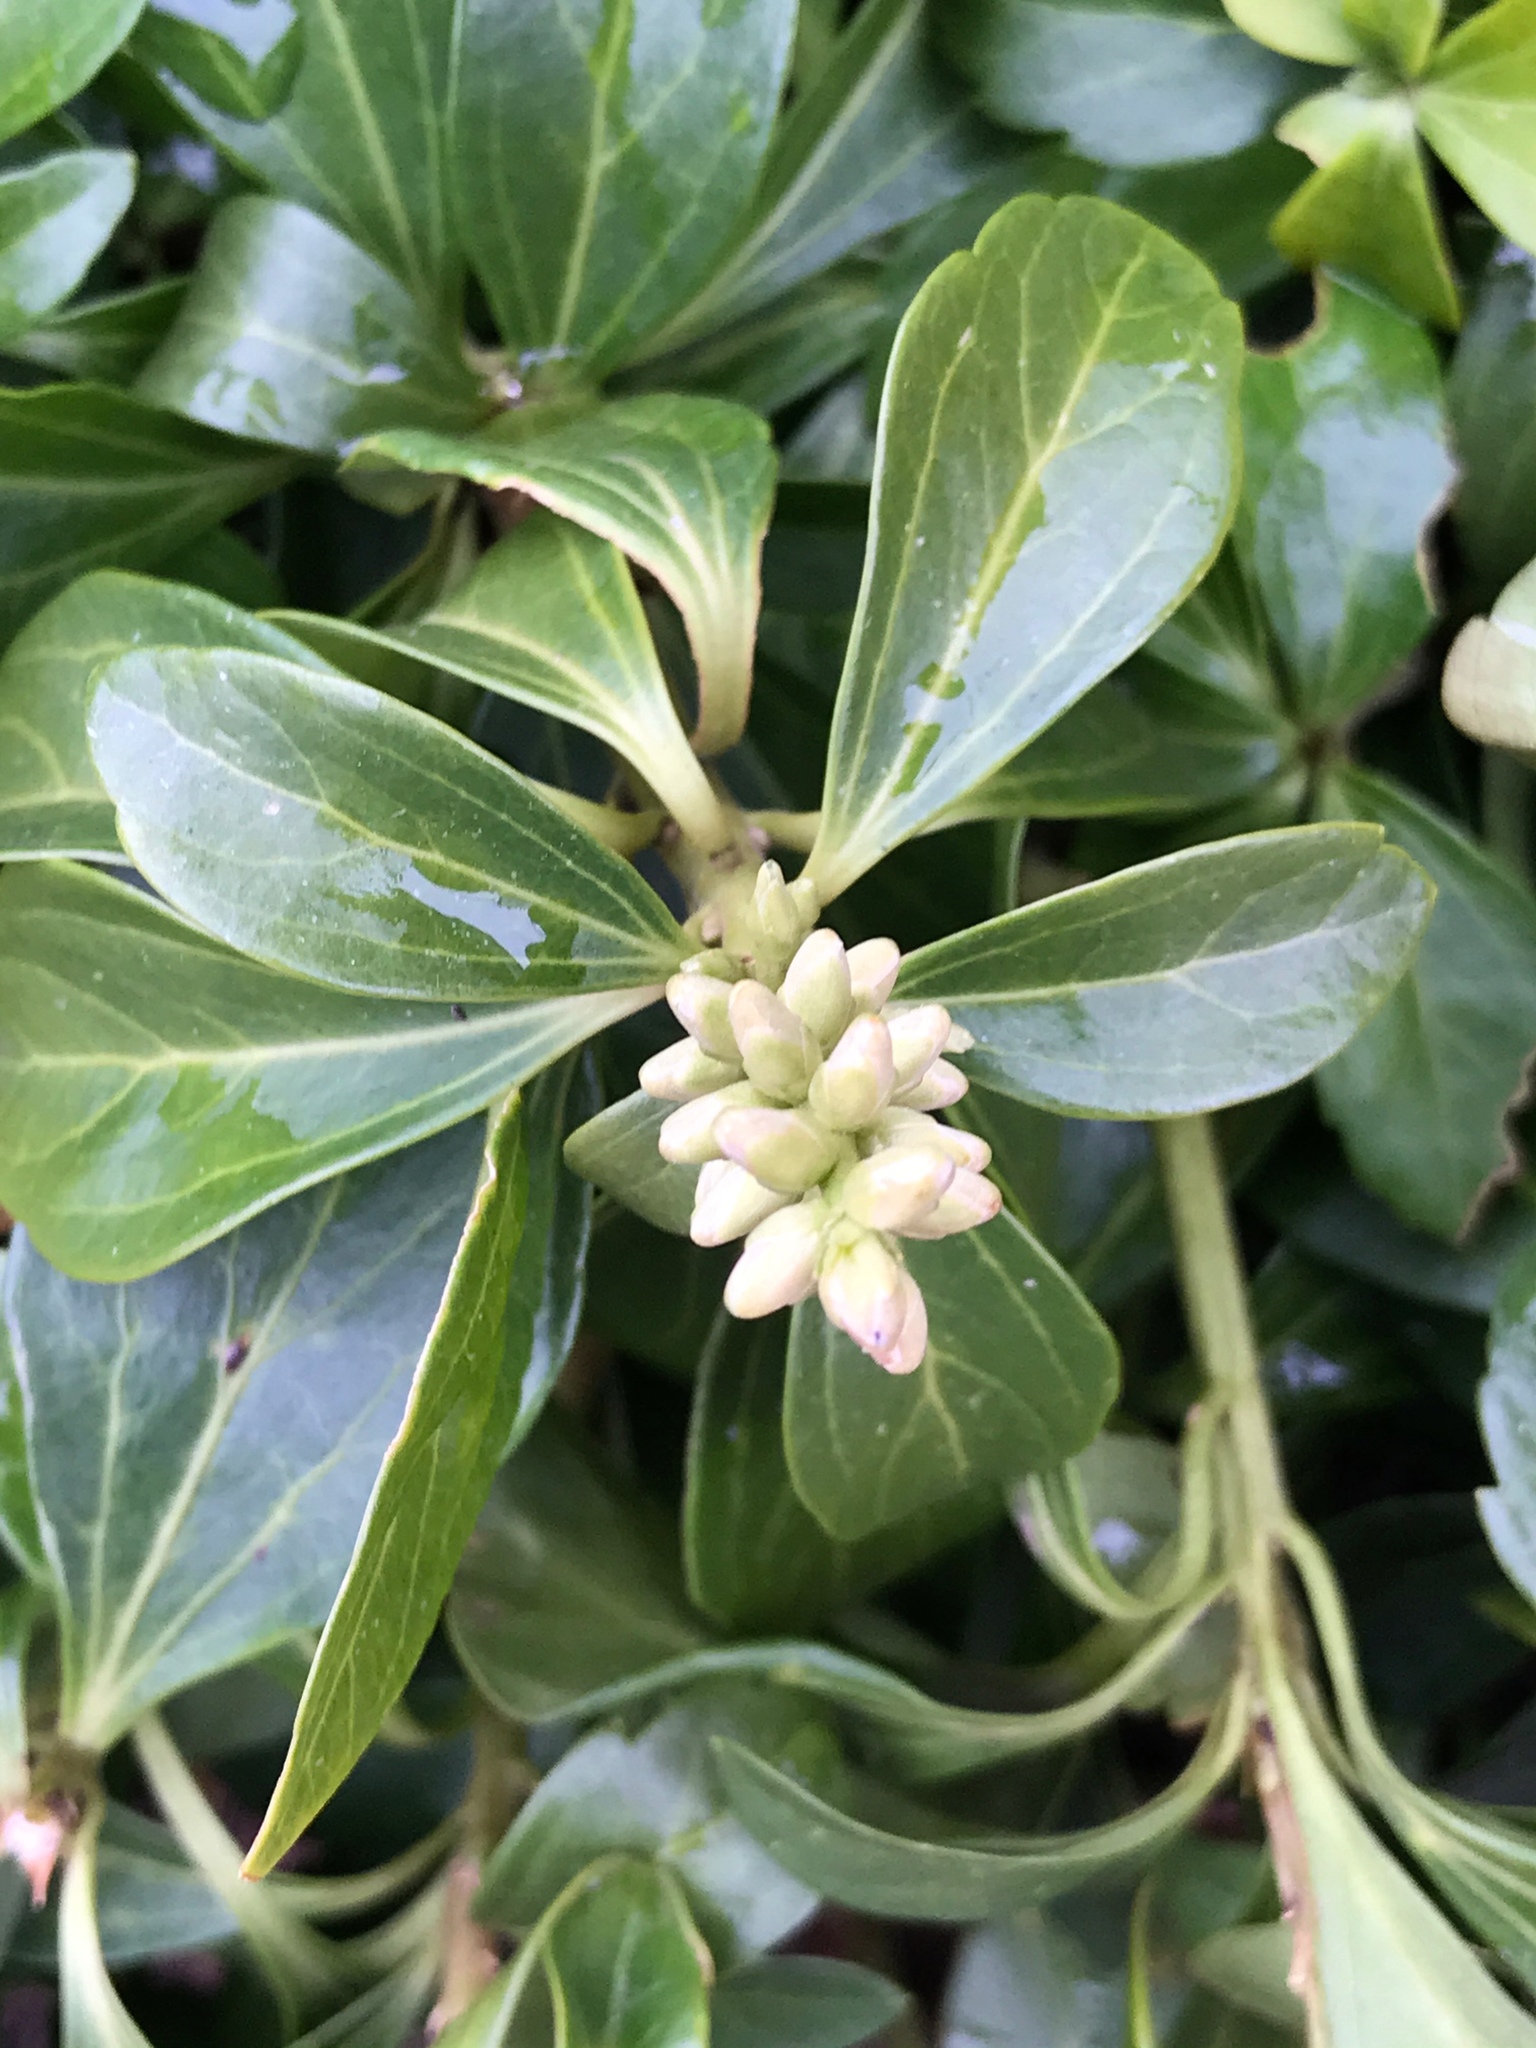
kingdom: Plantae
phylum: Tracheophyta
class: Magnoliopsida
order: Buxales
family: Buxaceae
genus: Pachysandra
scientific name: Pachysandra terminalis
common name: Japanese pachysandra
